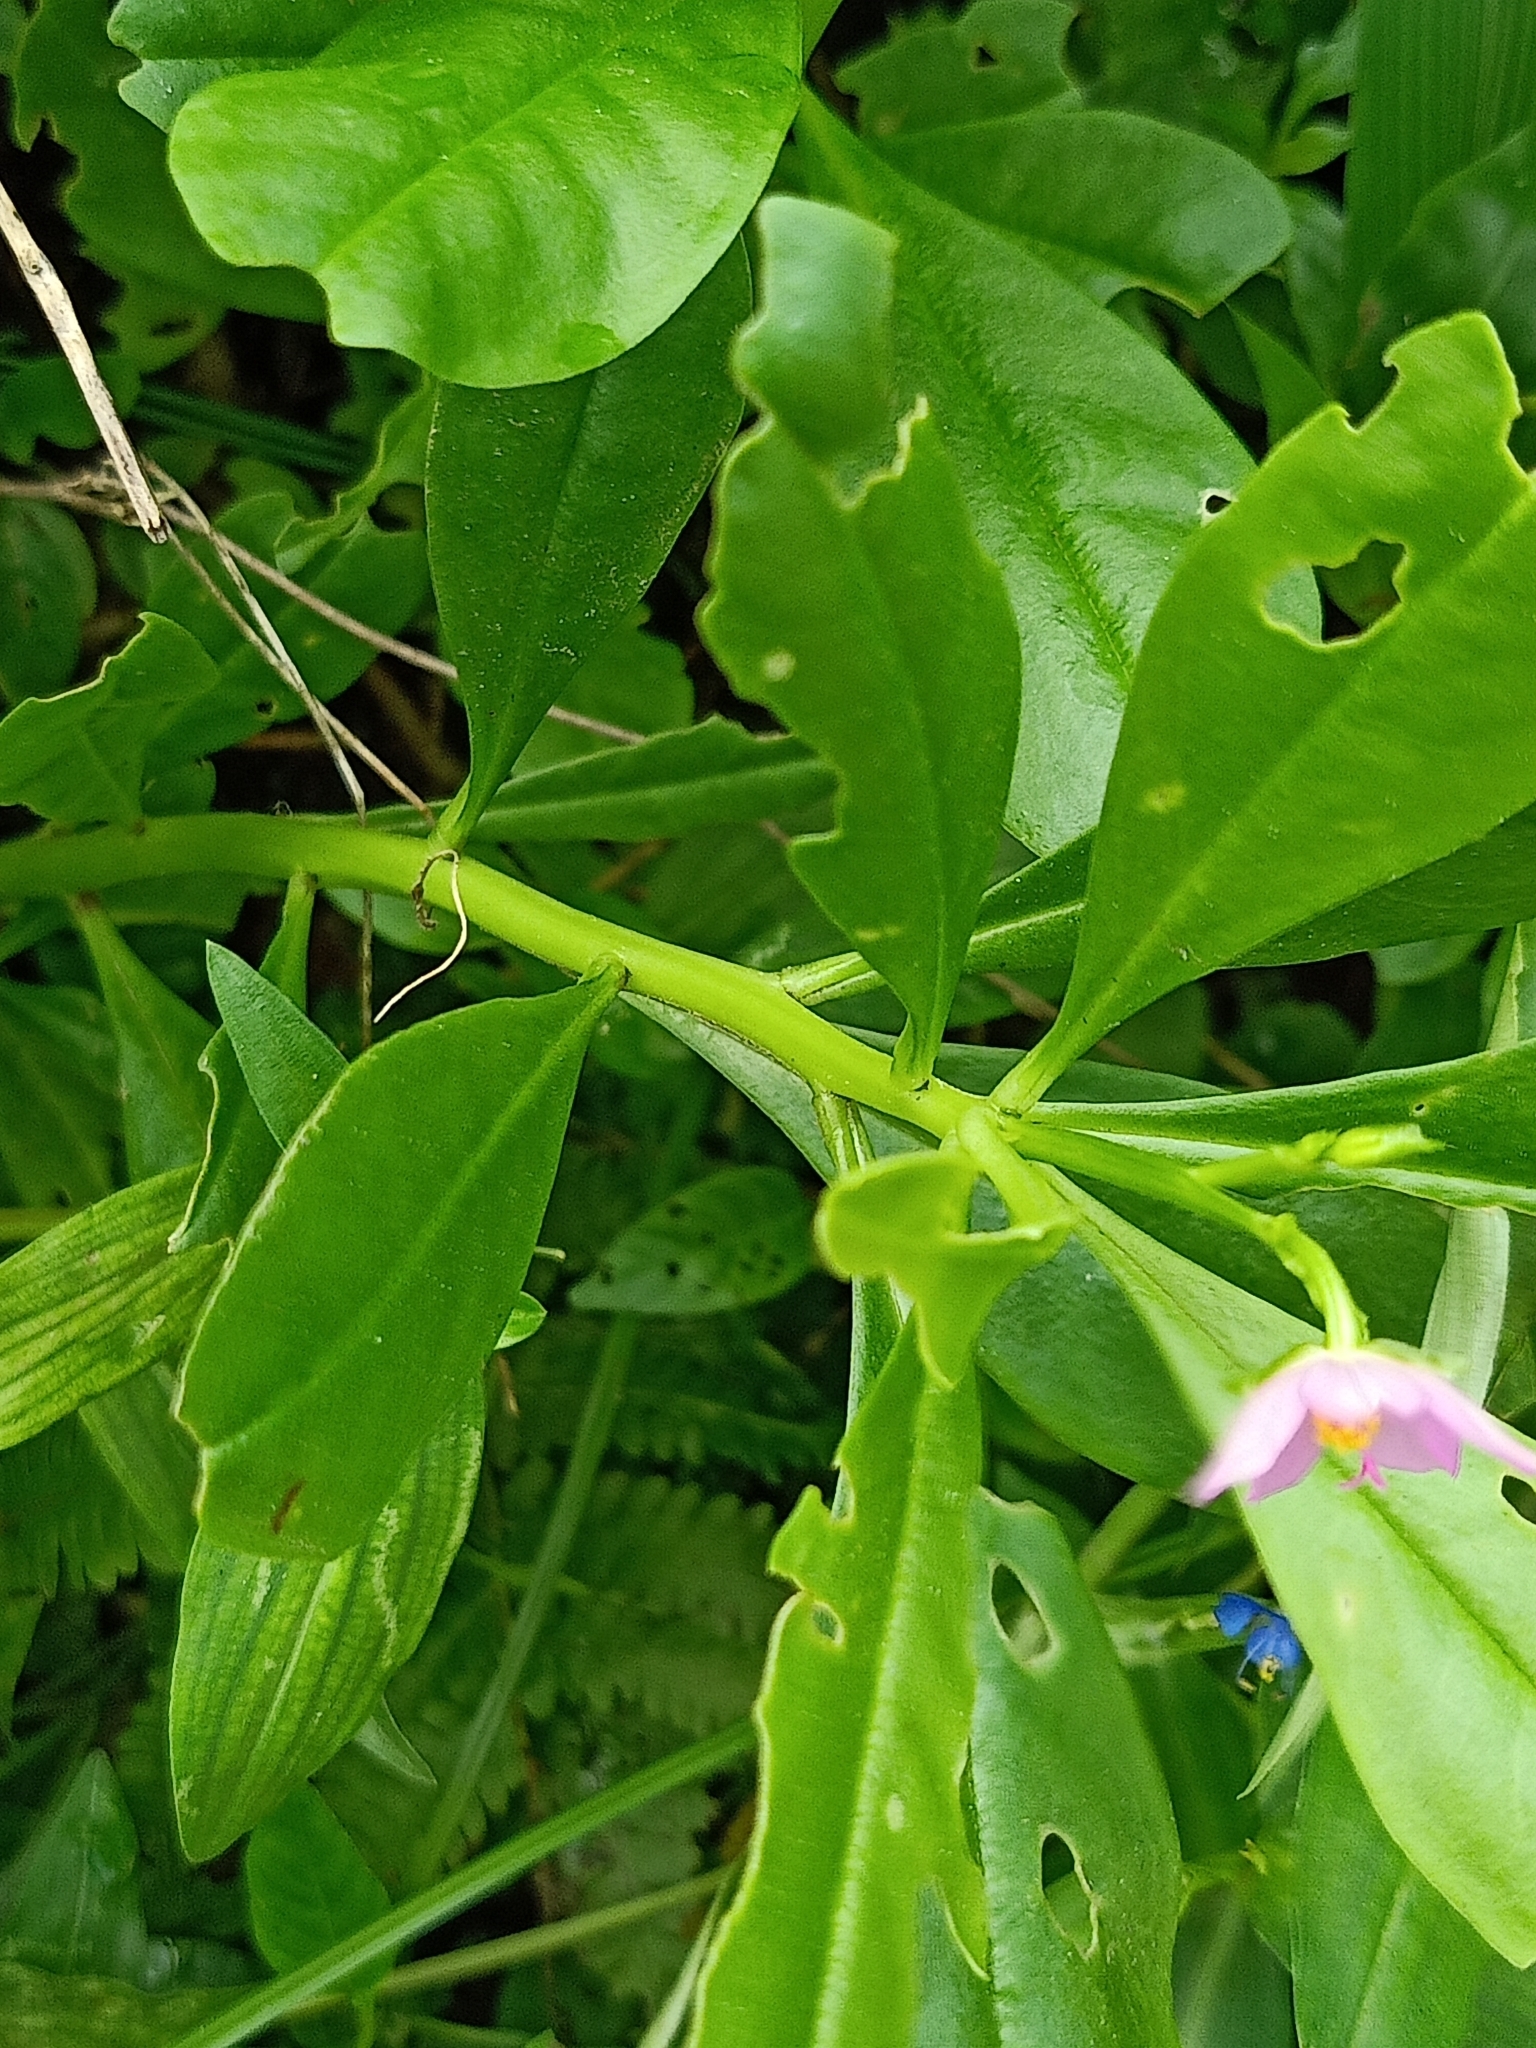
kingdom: Plantae
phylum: Tracheophyta
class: Magnoliopsida
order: Caryophyllales
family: Talinaceae
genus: Talinum
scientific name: Talinum fruticosum
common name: Verdolaga-francesa
